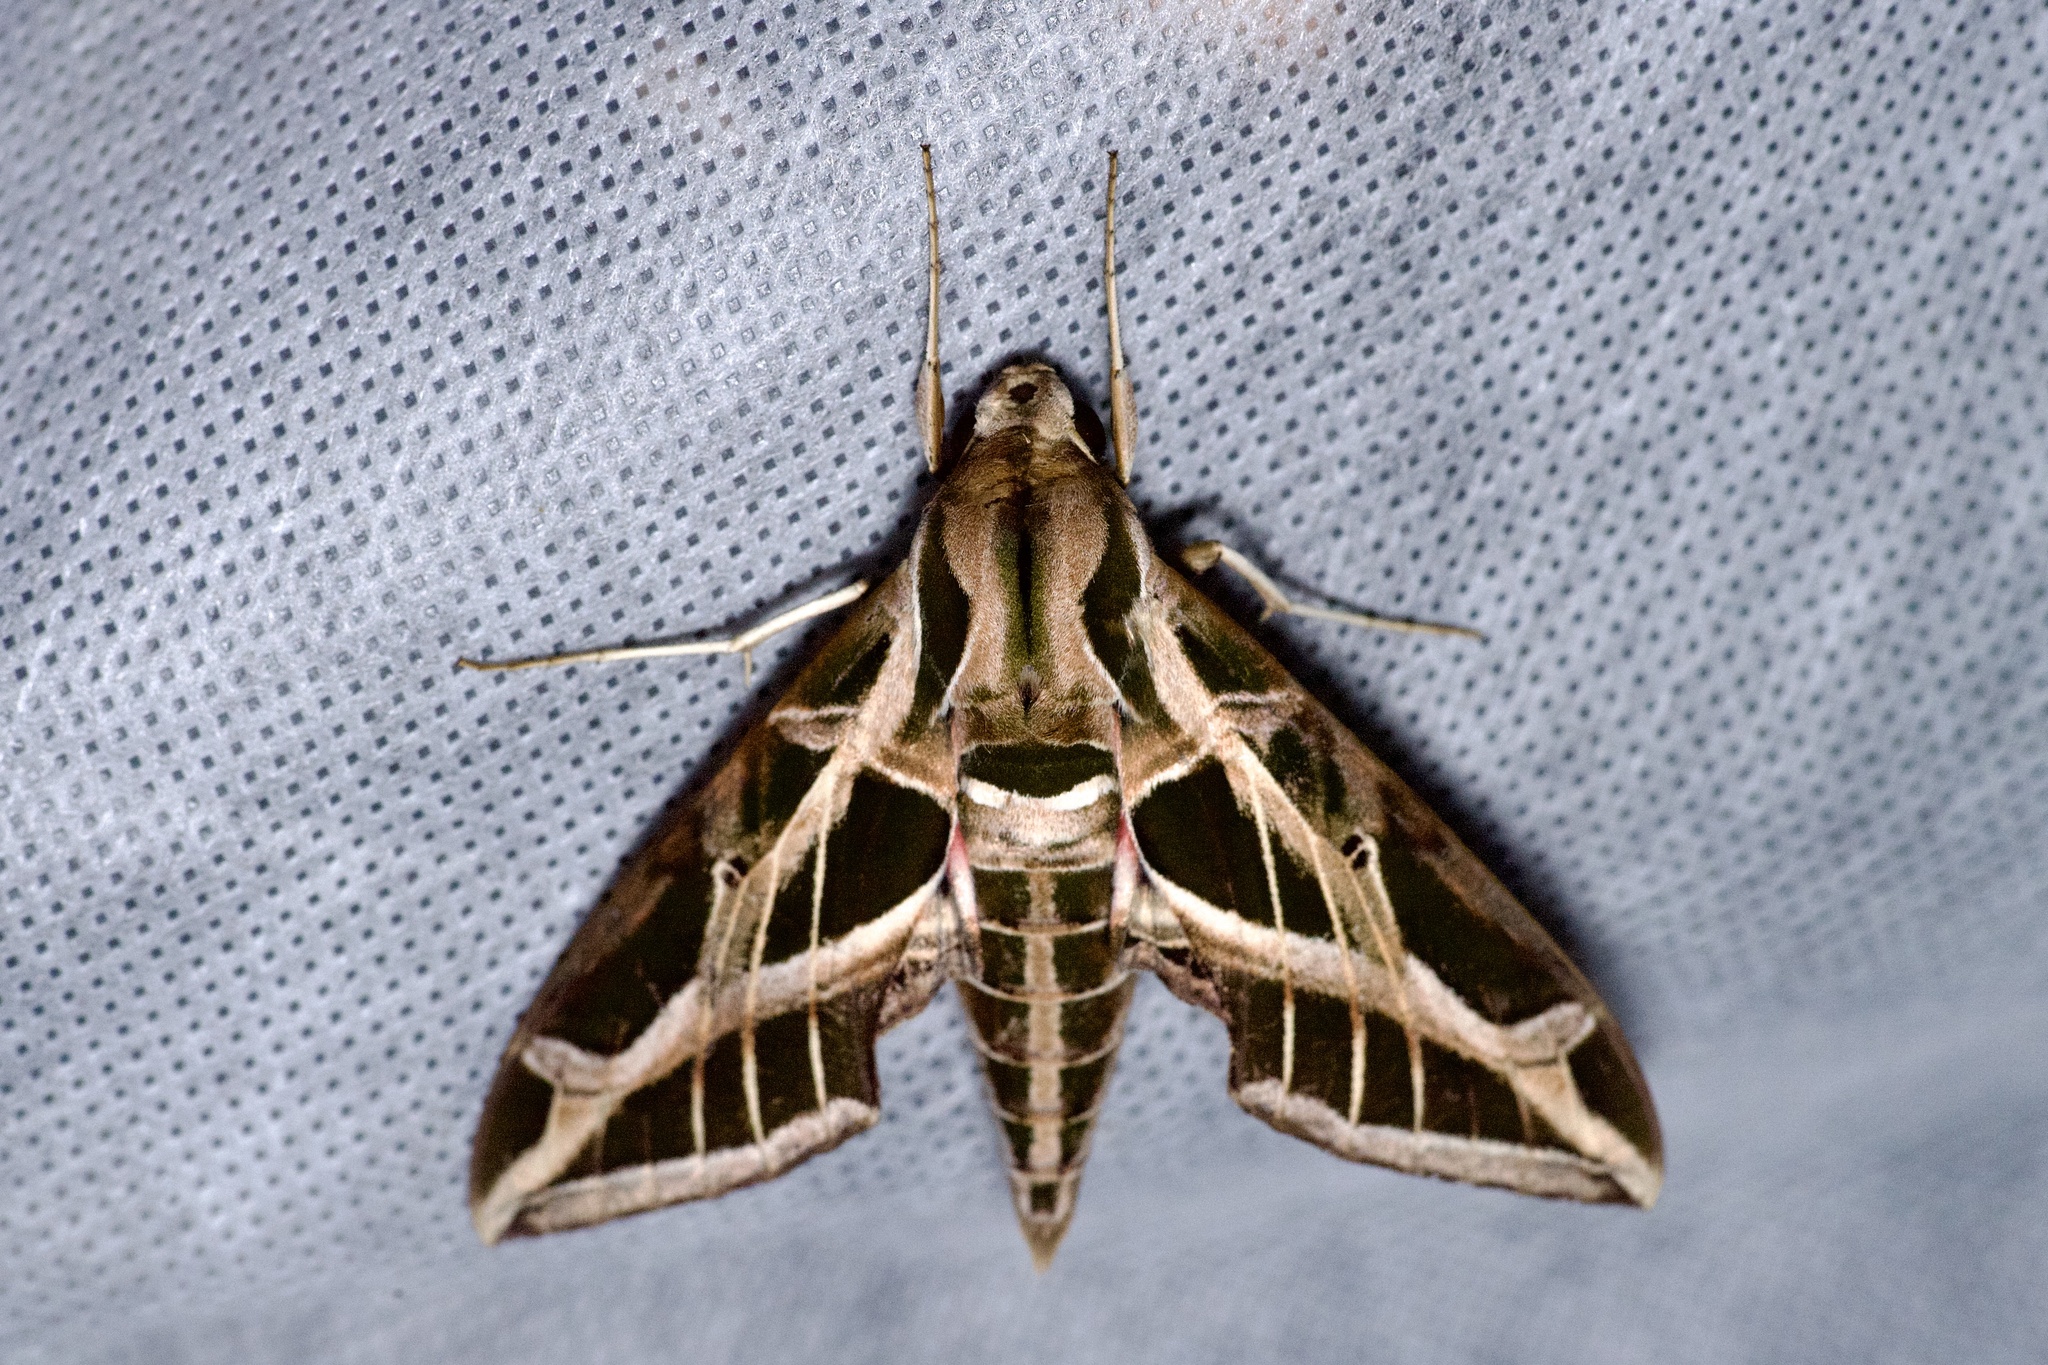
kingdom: Animalia
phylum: Arthropoda
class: Insecta
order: Lepidoptera
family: Sphingidae
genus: Eumorpha
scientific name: Eumorpha vitis
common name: Vine sphinx
